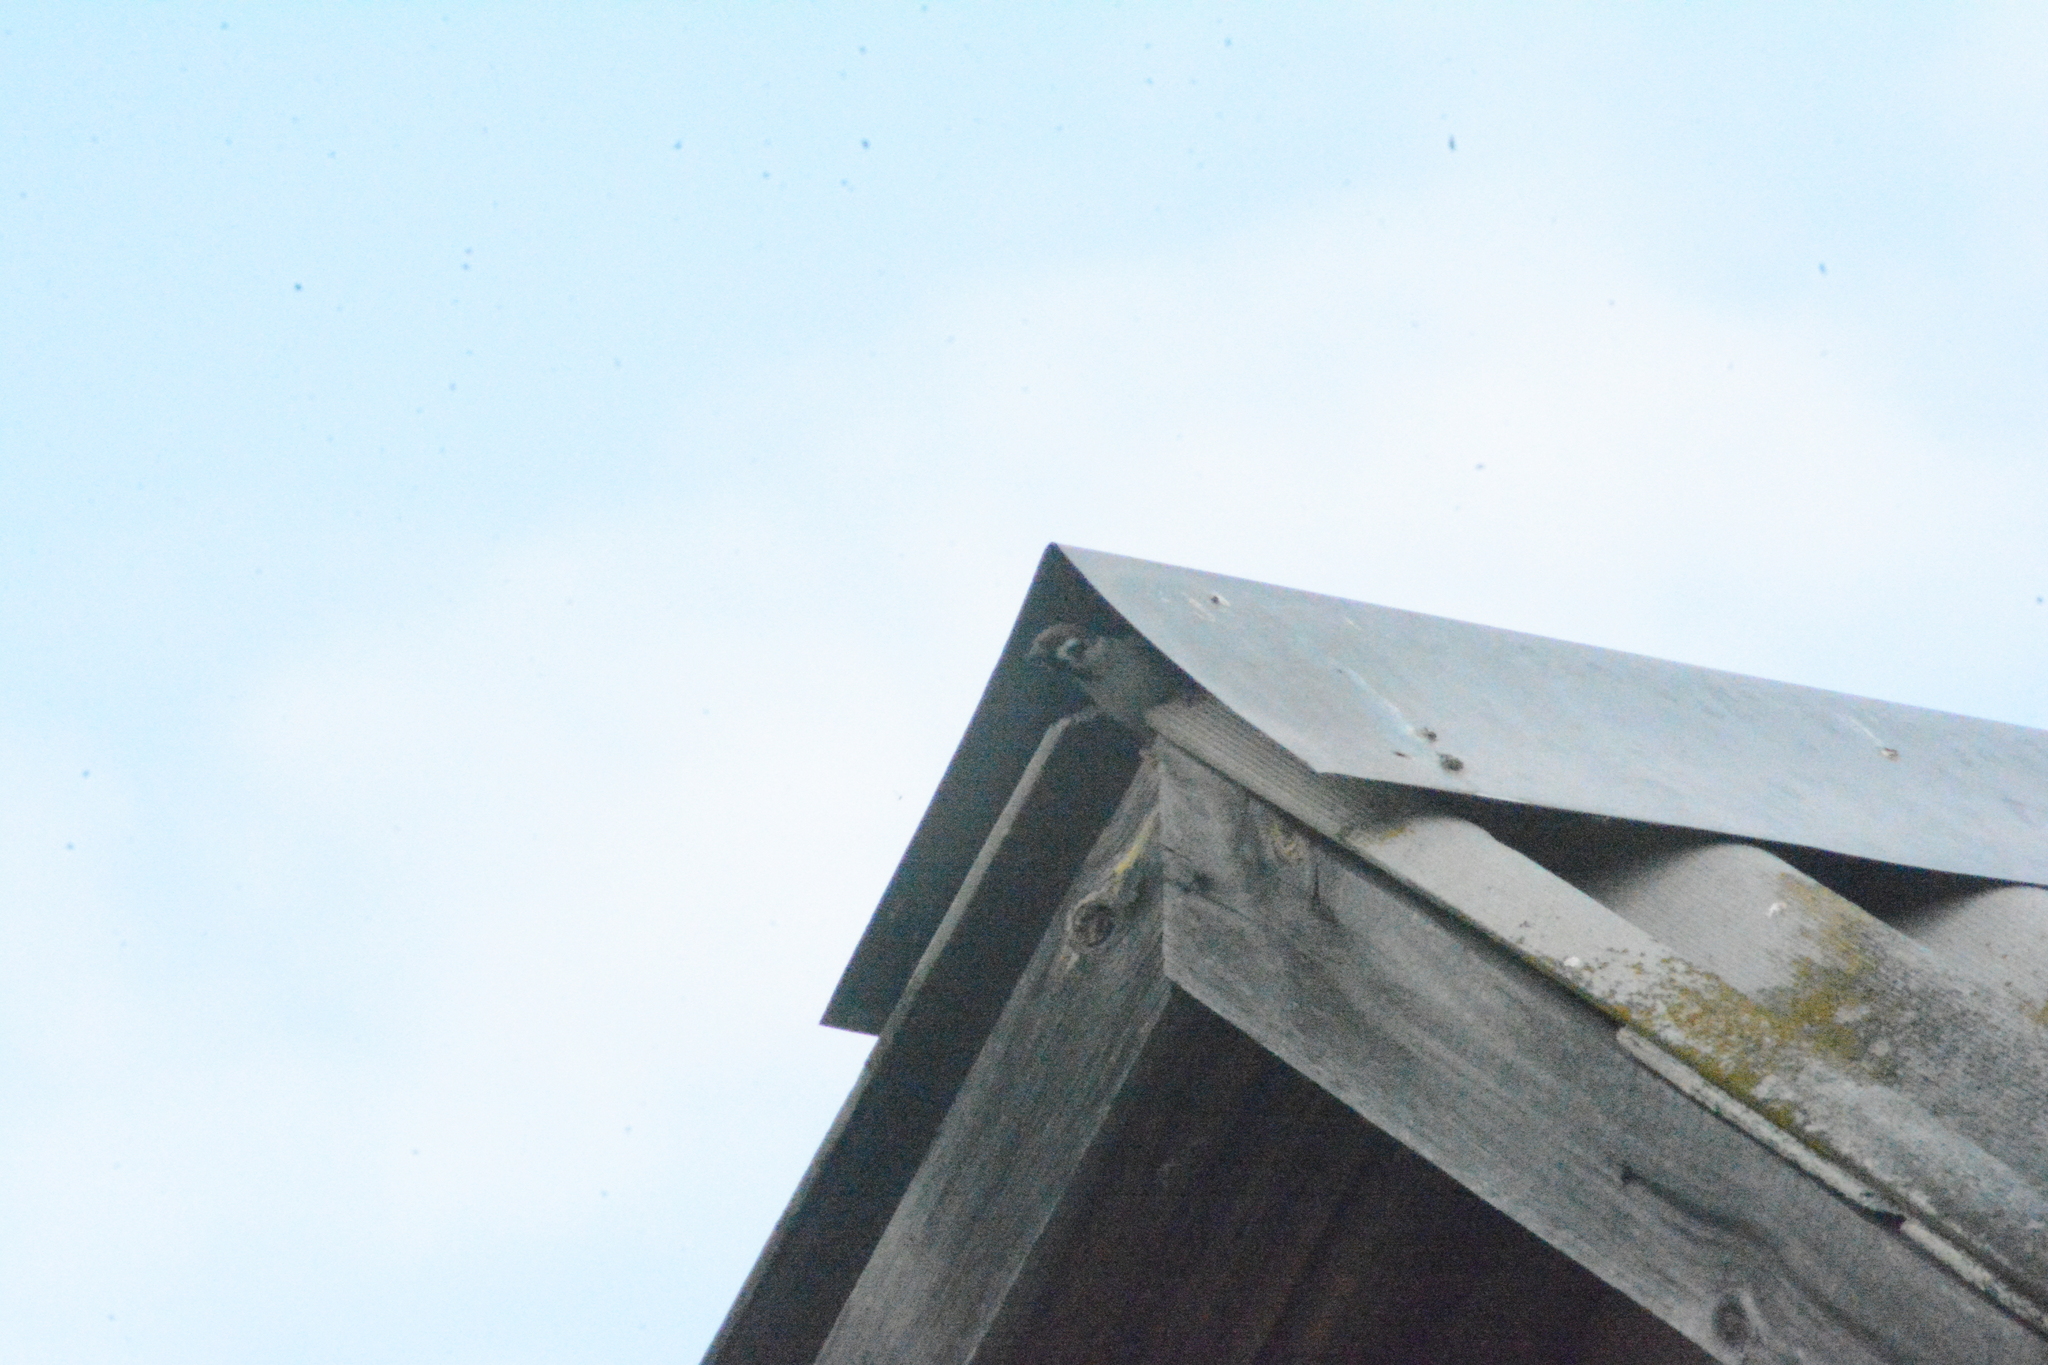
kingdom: Animalia
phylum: Chordata
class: Aves
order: Passeriformes
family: Passeridae
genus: Passer
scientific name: Passer montanus
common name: Eurasian tree sparrow
